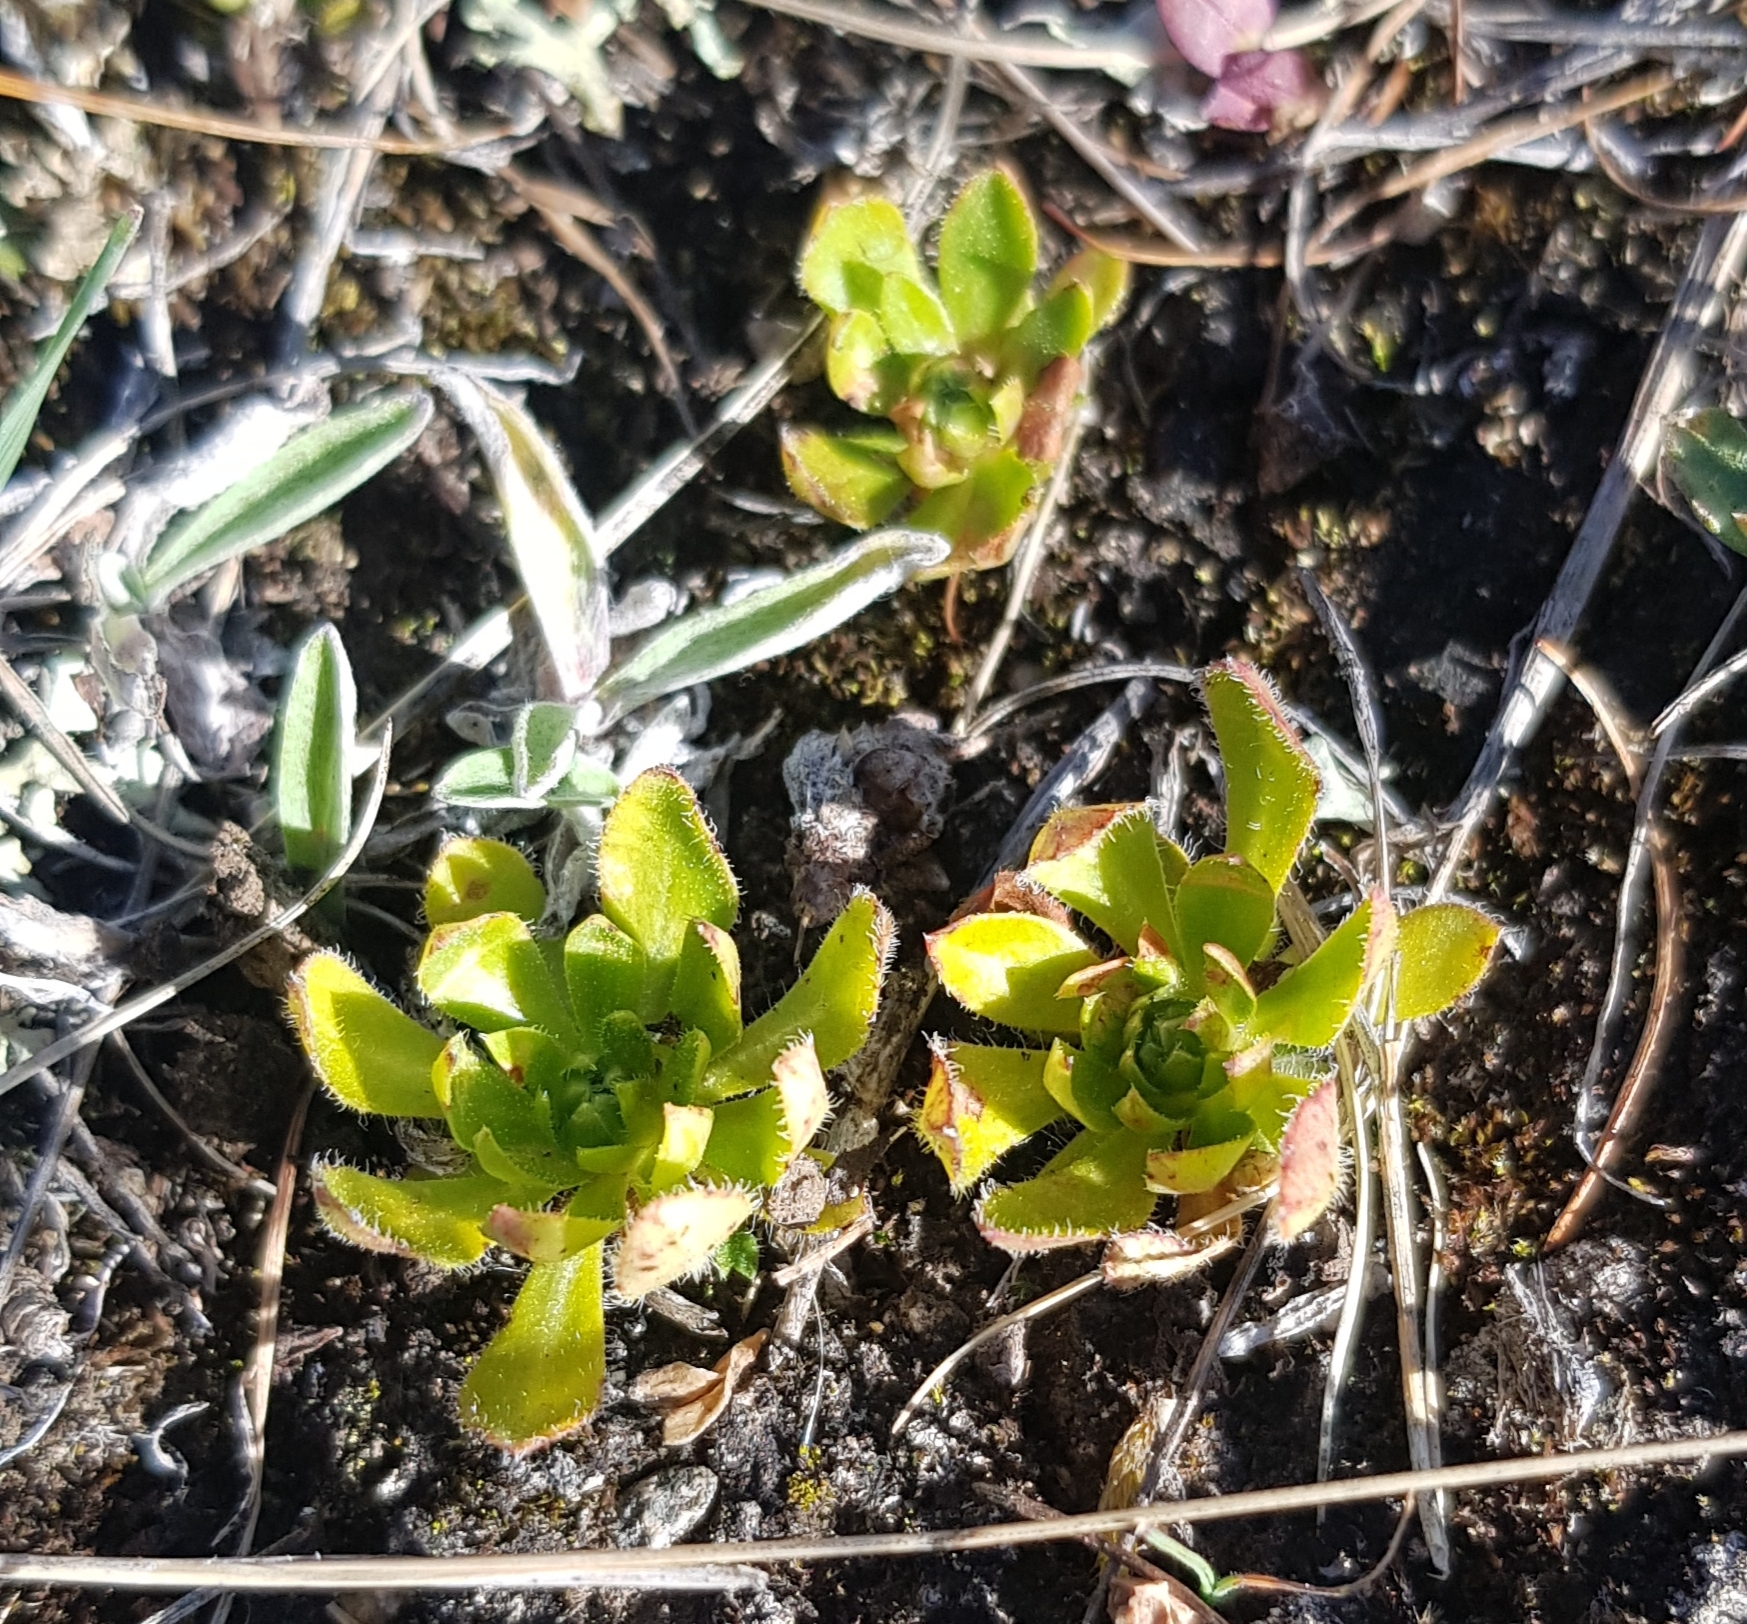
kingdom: Plantae
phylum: Tracheophyta
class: Magnoliopsida
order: Ericales
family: Primulaceae
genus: Androsace
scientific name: Androsace chamaejasme
